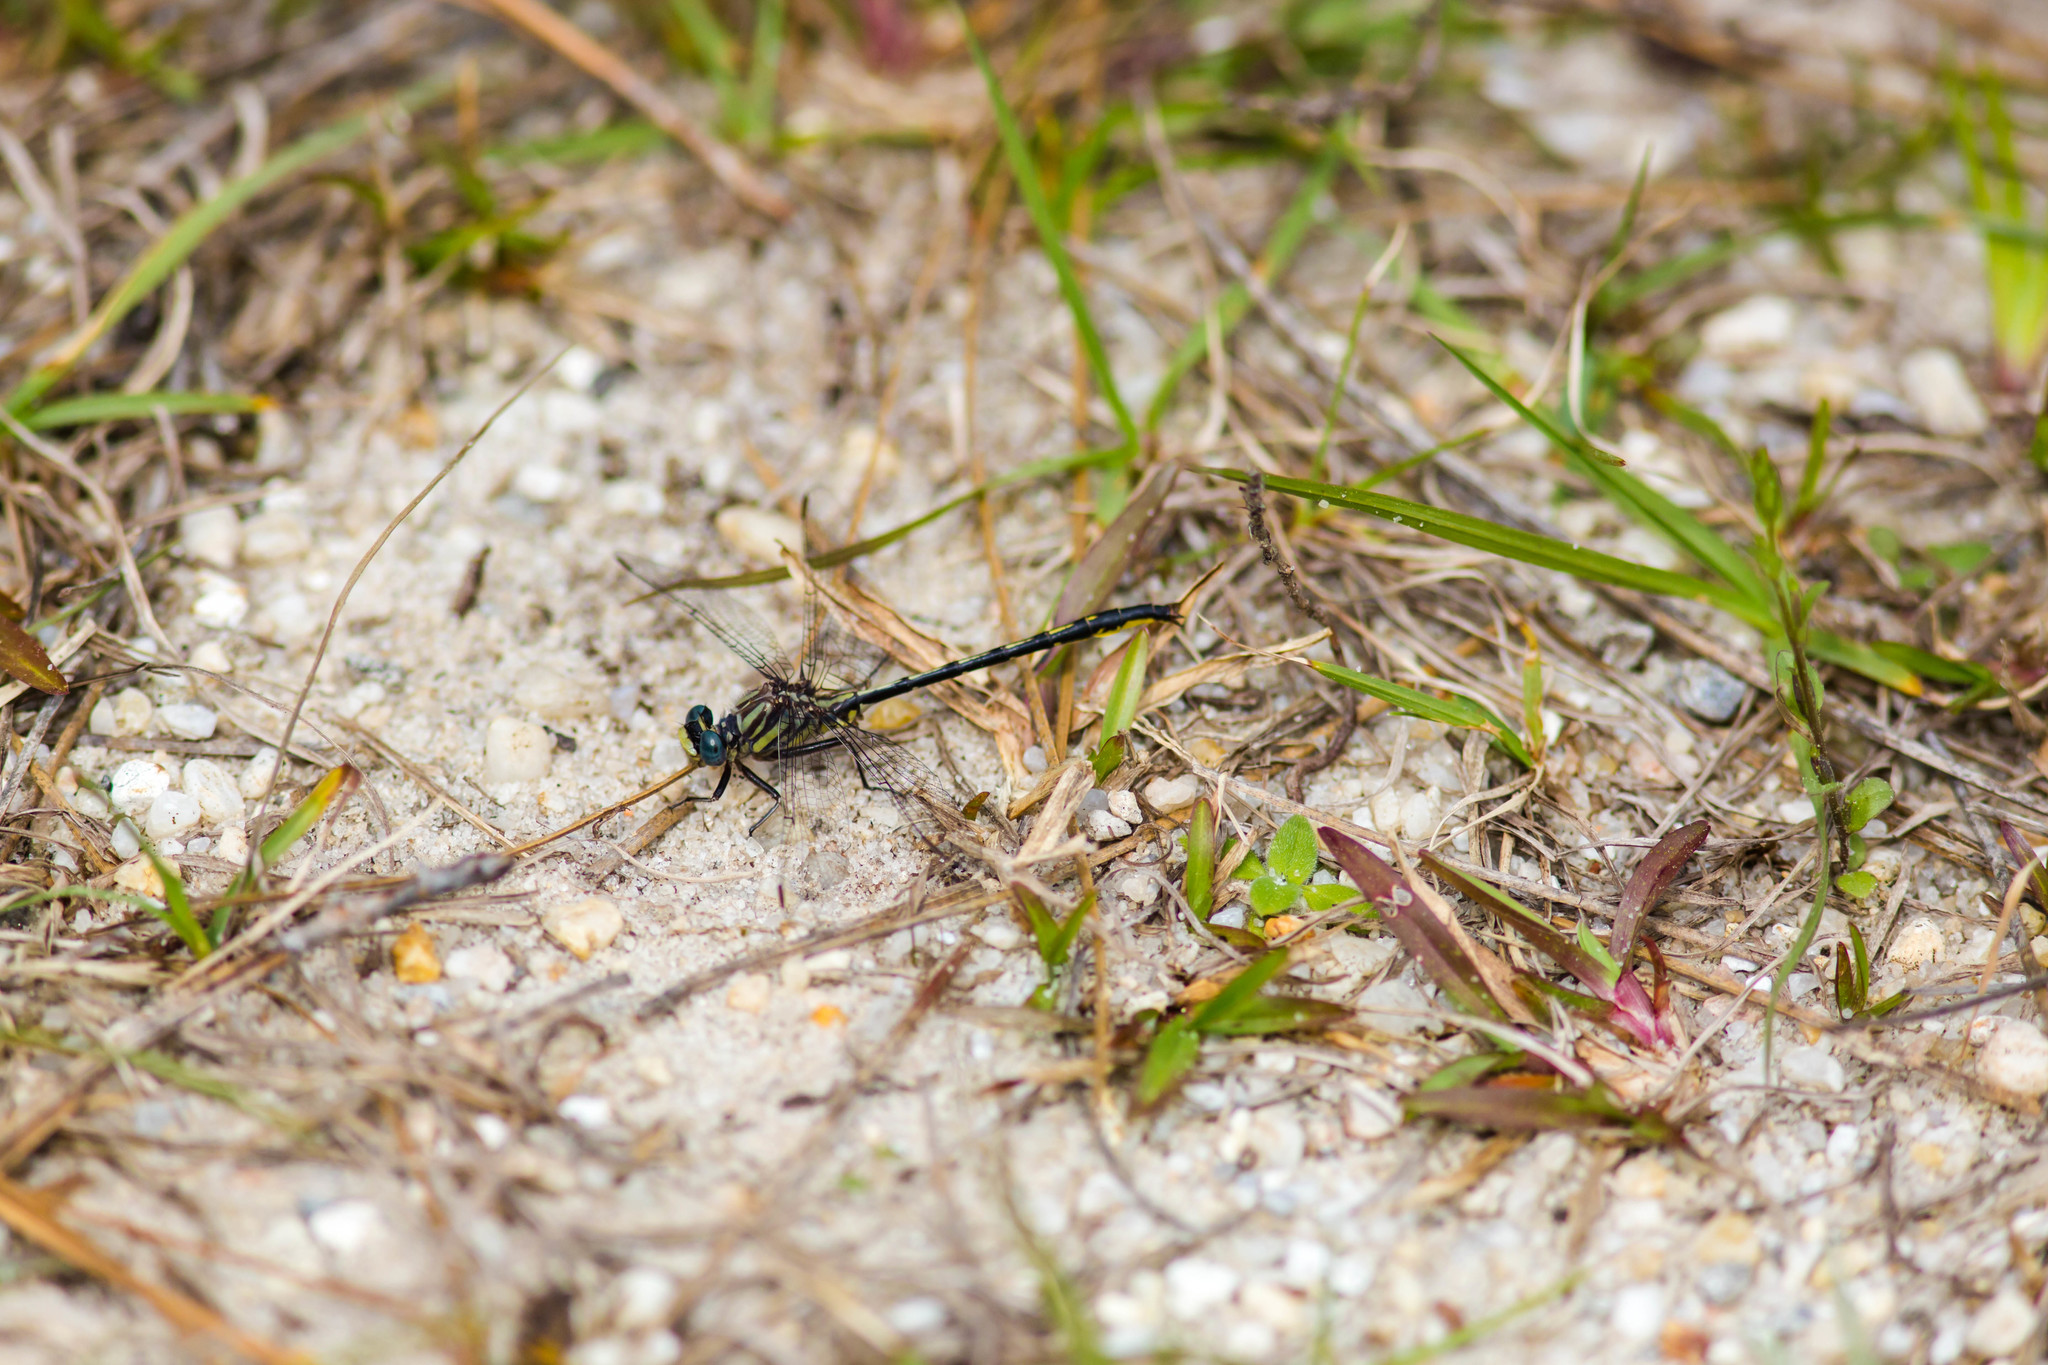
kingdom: Animalia
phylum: Arthropoda
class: Insecta
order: Odonata
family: Gomphidae
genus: Phanogomphus
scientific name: Phanogomphus westfalli
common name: Westfall’s clubtail
